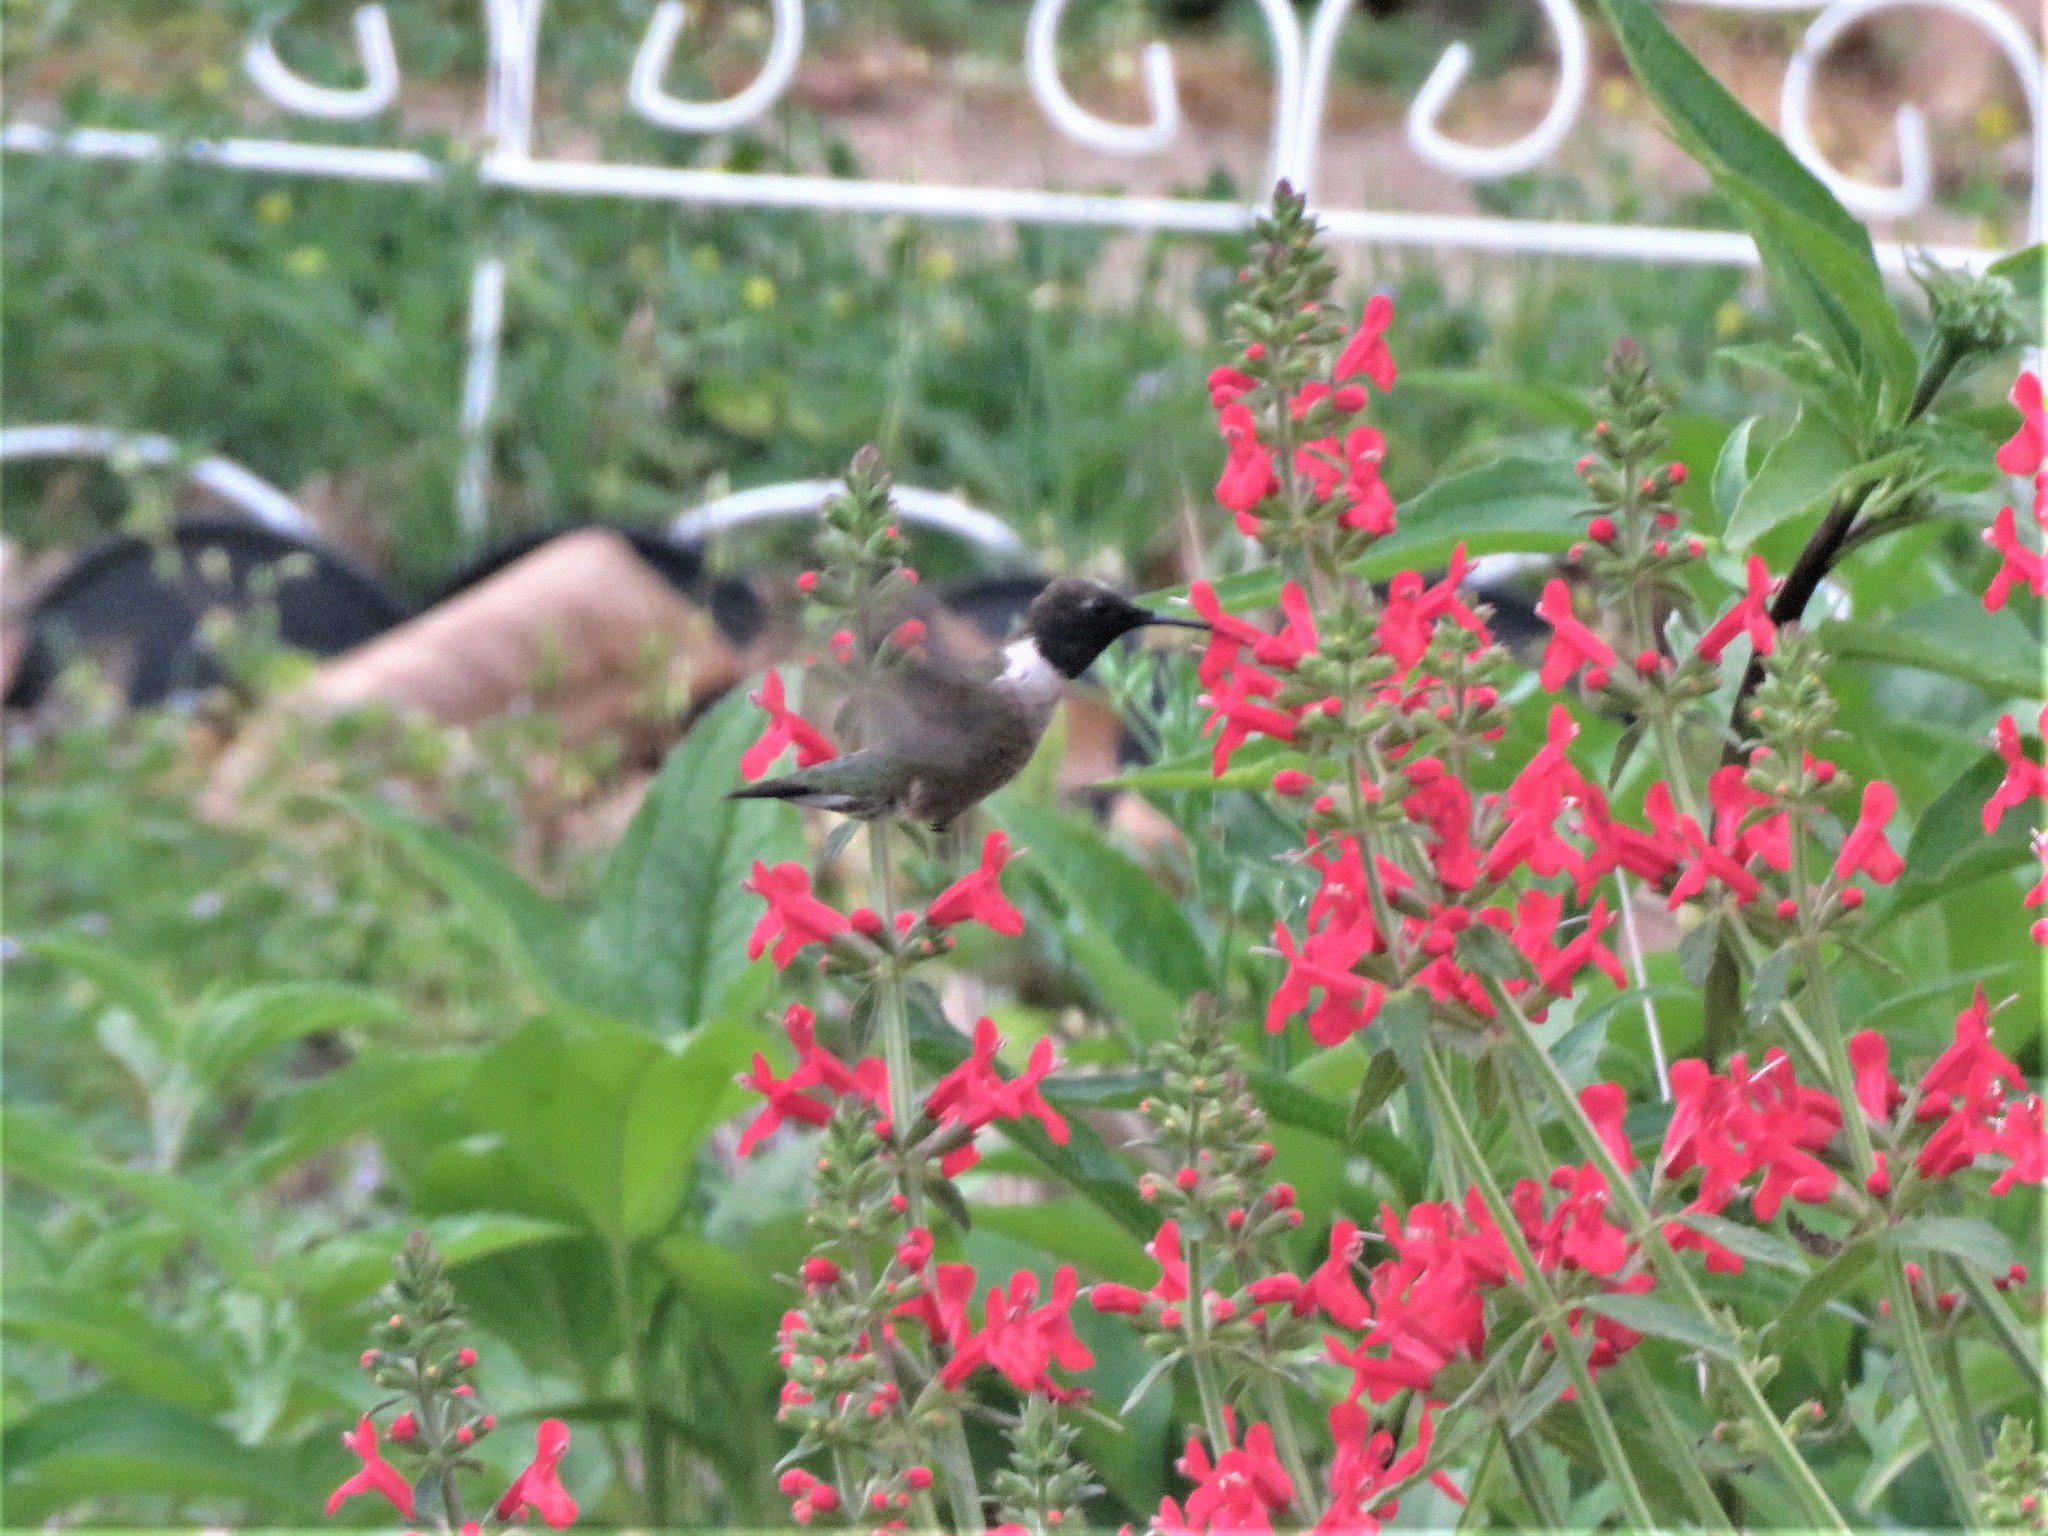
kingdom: Animalia
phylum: Chordata
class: Aves
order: Apodiformes
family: Trochilidae
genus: Archilochus
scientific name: Archilochus alexandri
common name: Black-chinned hummingbird
